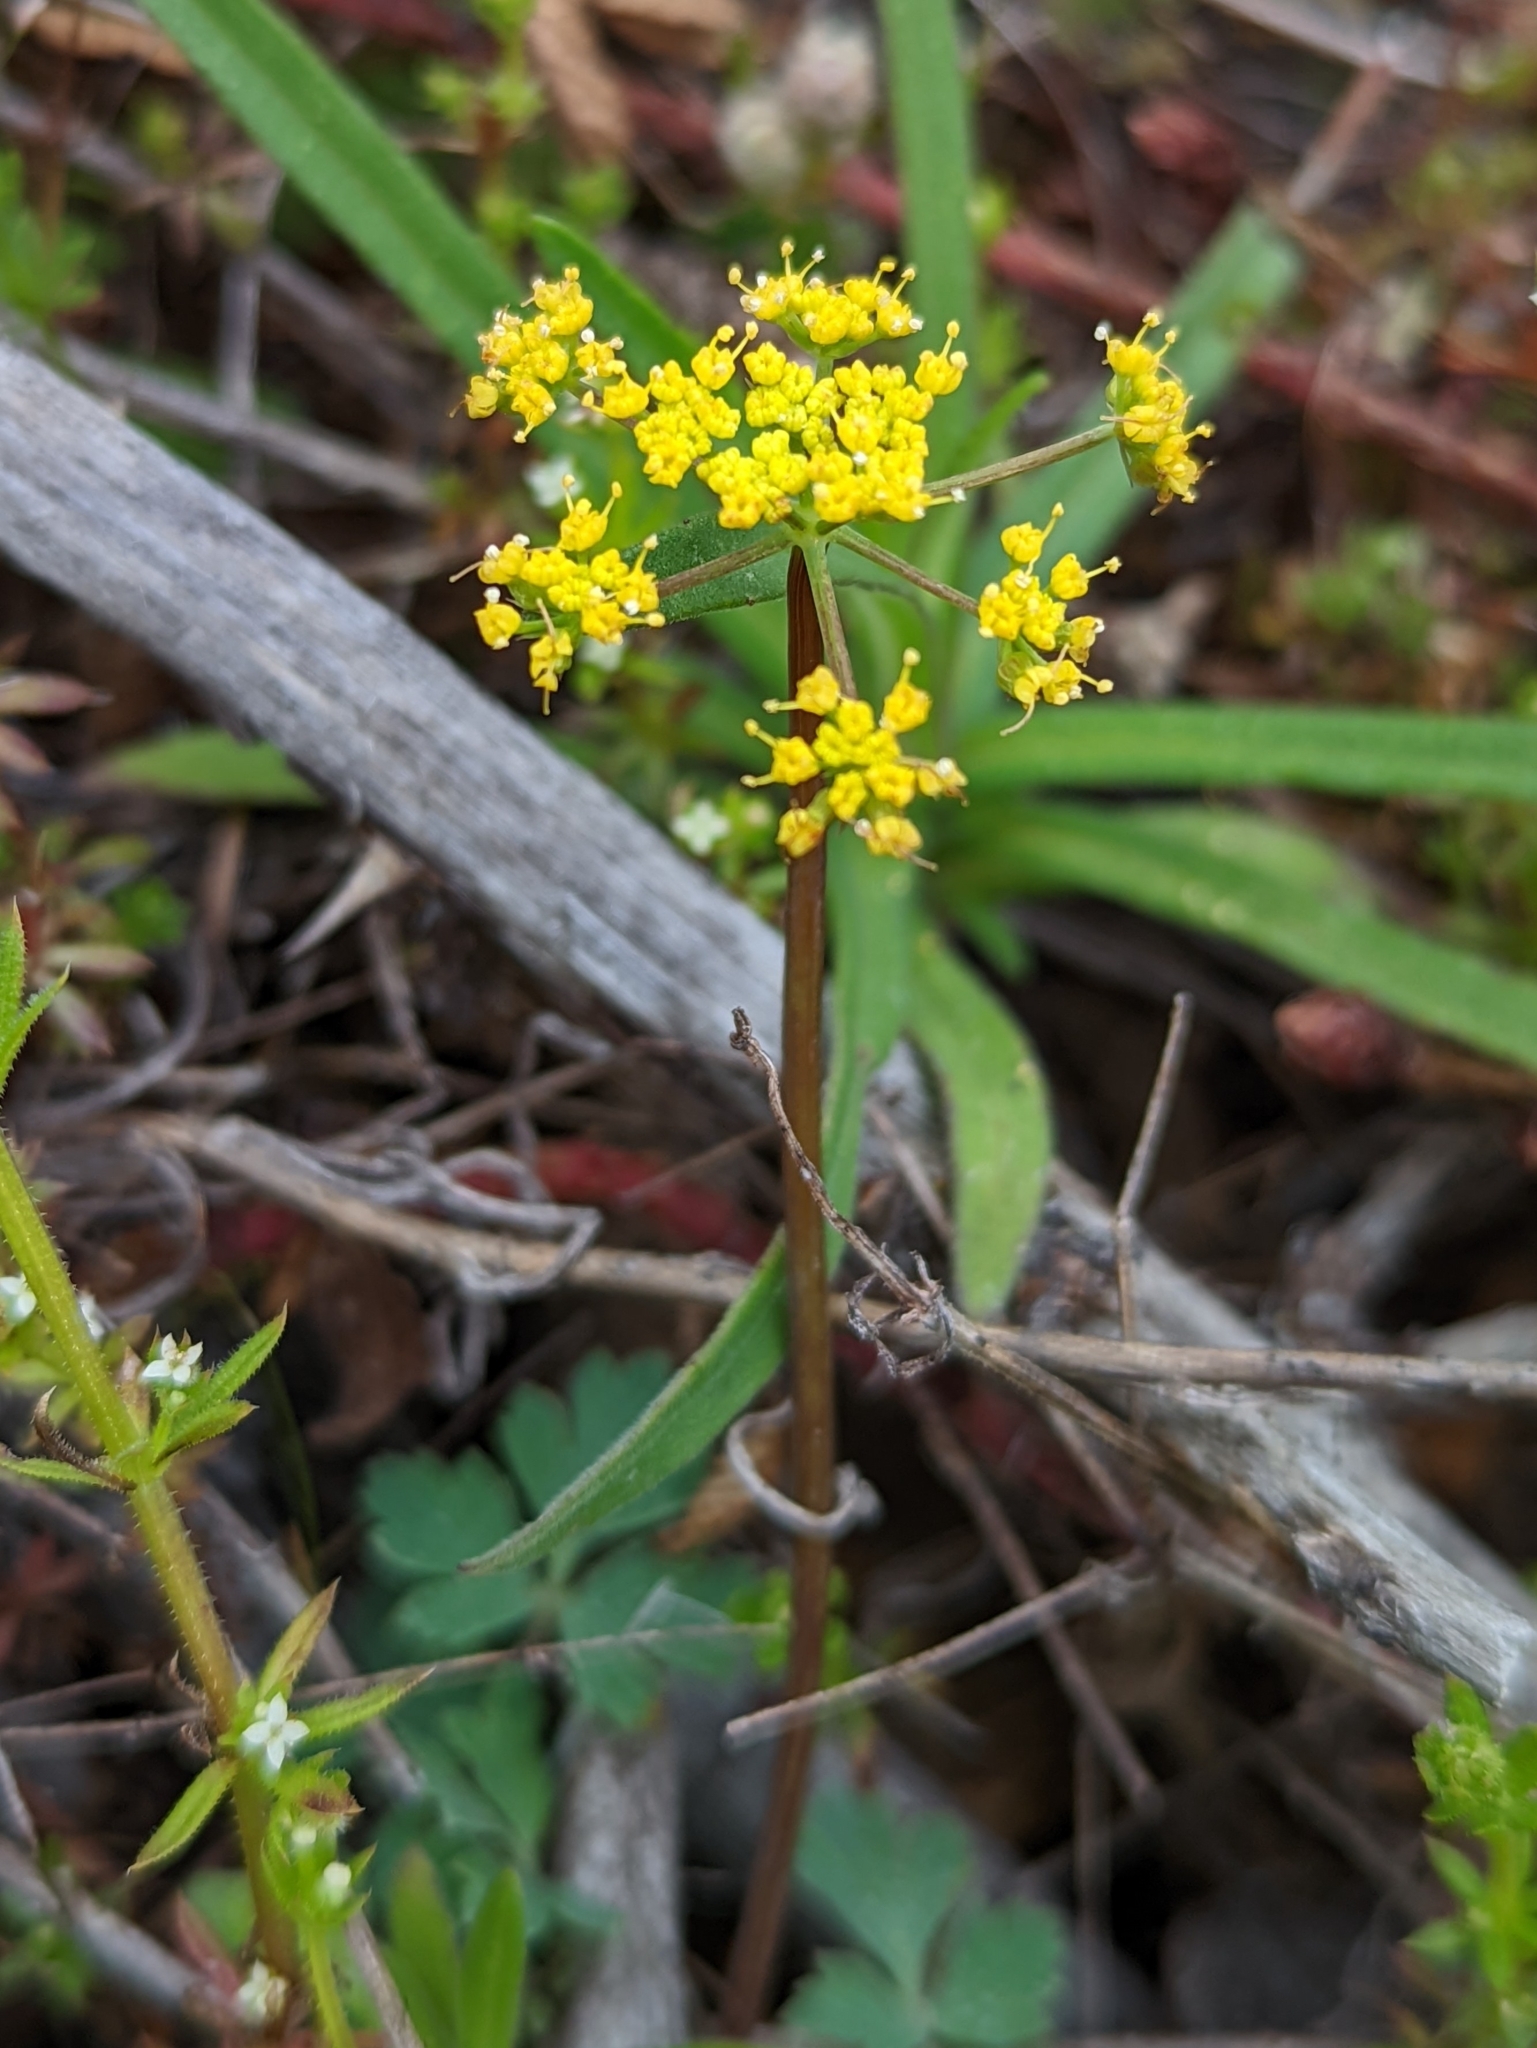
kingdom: Plantae
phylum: Tracheophyta
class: Magnoliopsida
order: Apiales
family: Apiaceae
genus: Lomatium
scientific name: Lomatium californicum
